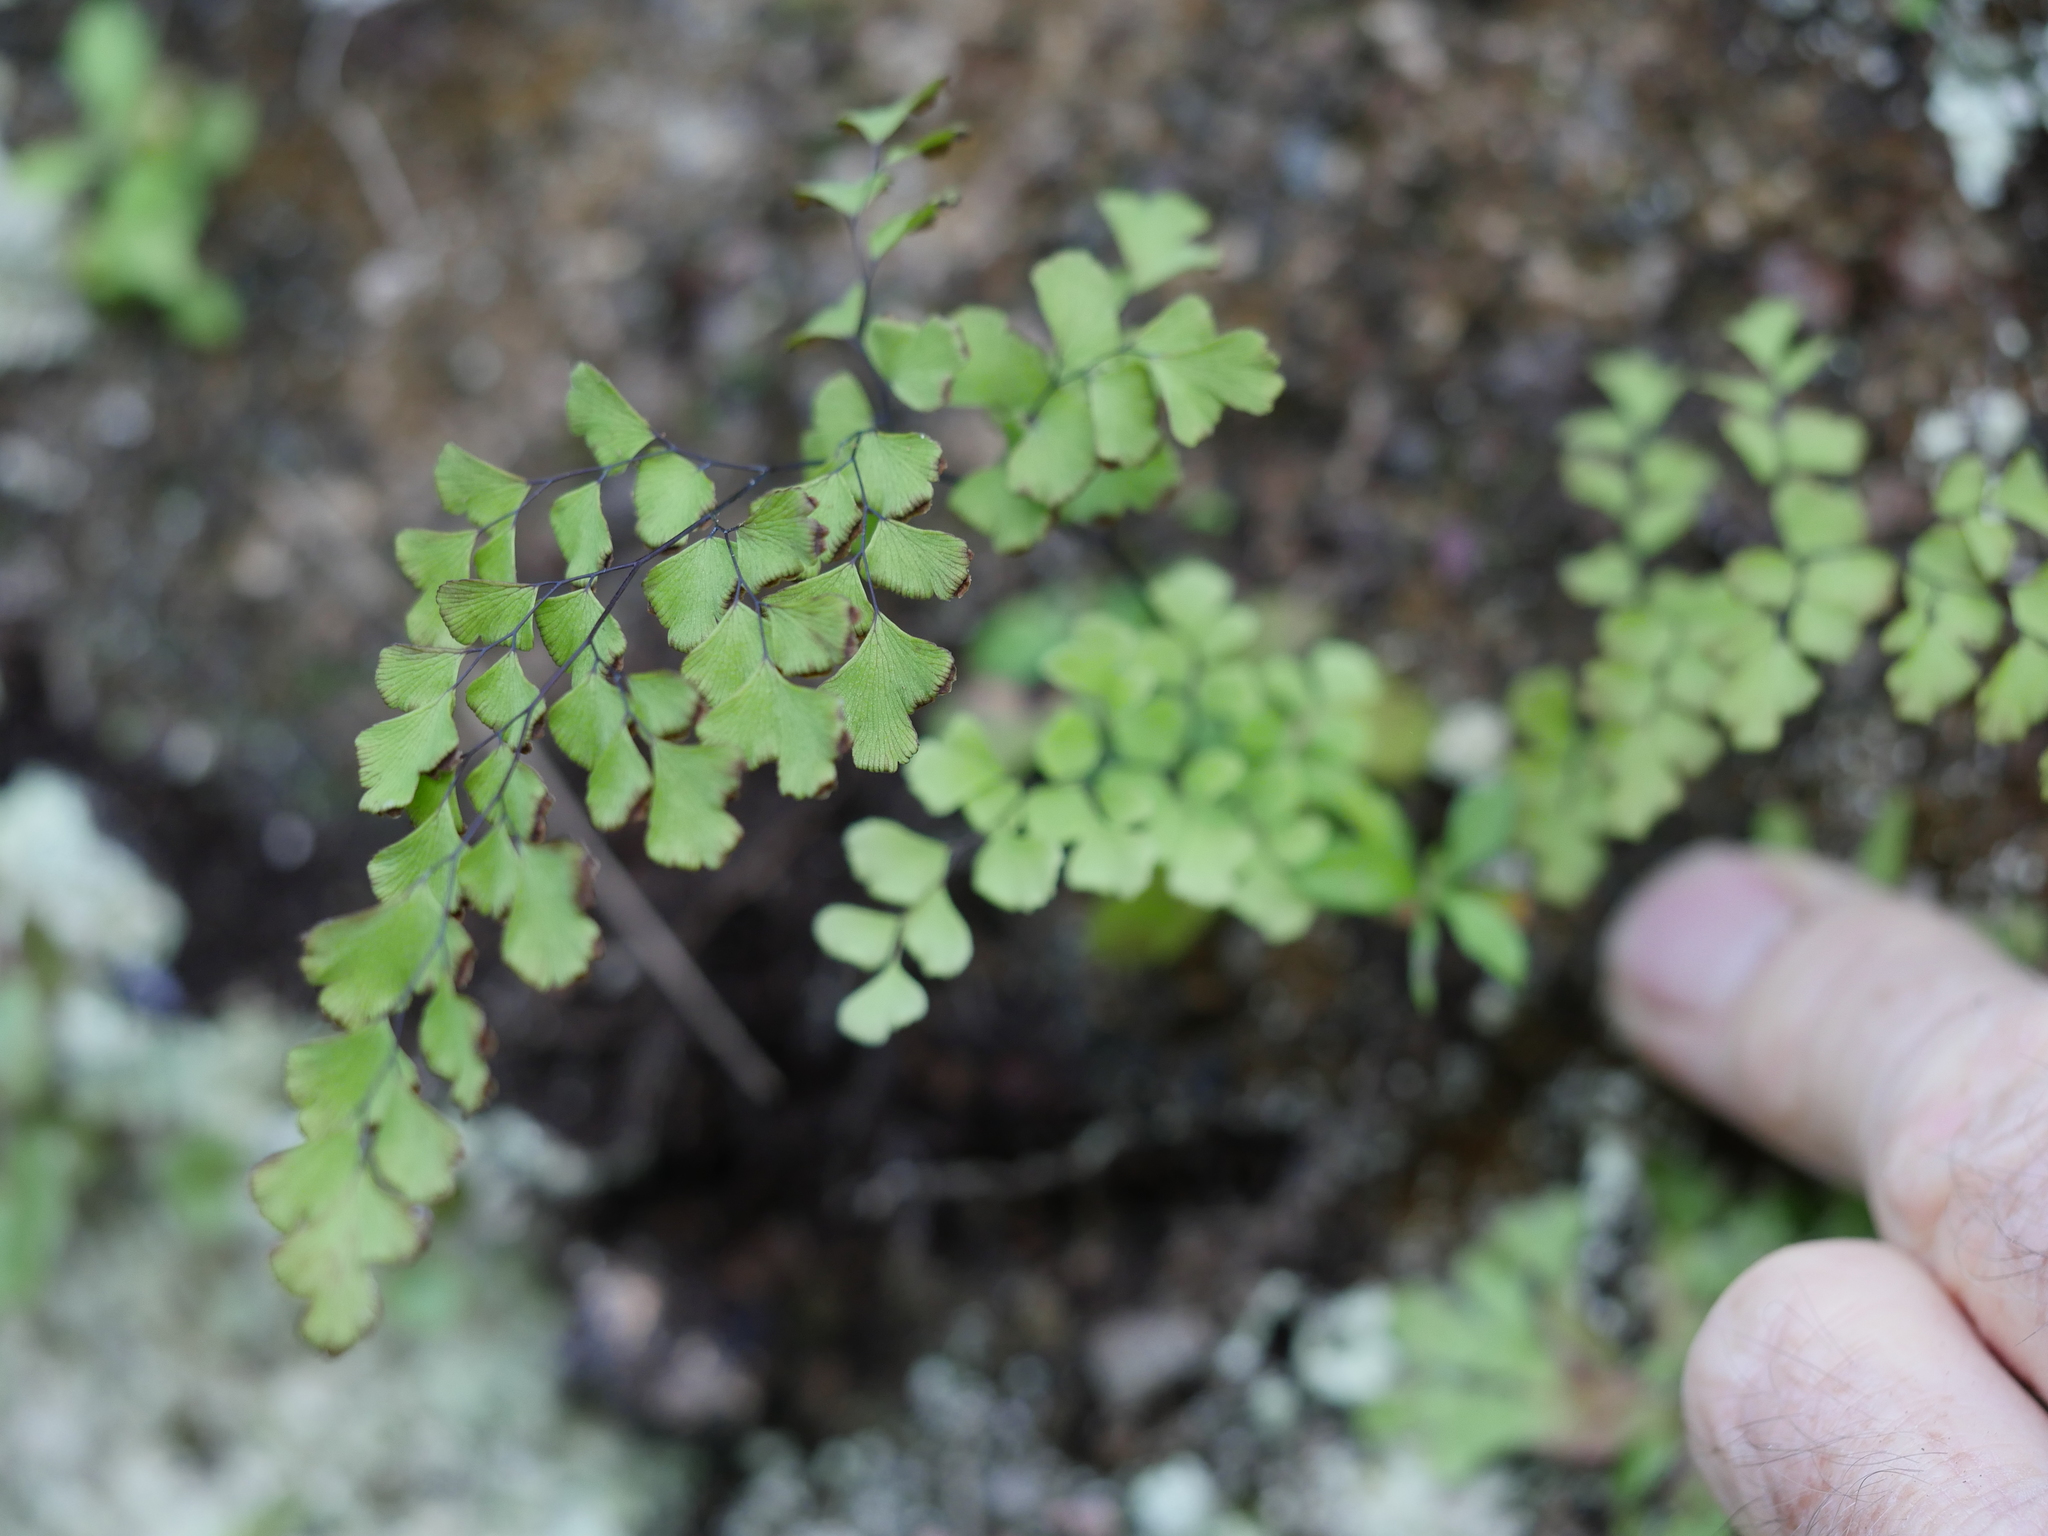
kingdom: Plantae
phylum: Tracheophyta
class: Polypodiopsida
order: Polypodiales
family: Pteridaceae
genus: Adiantum
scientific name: Adiantum capillus-veneris
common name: Maidenhair fern
